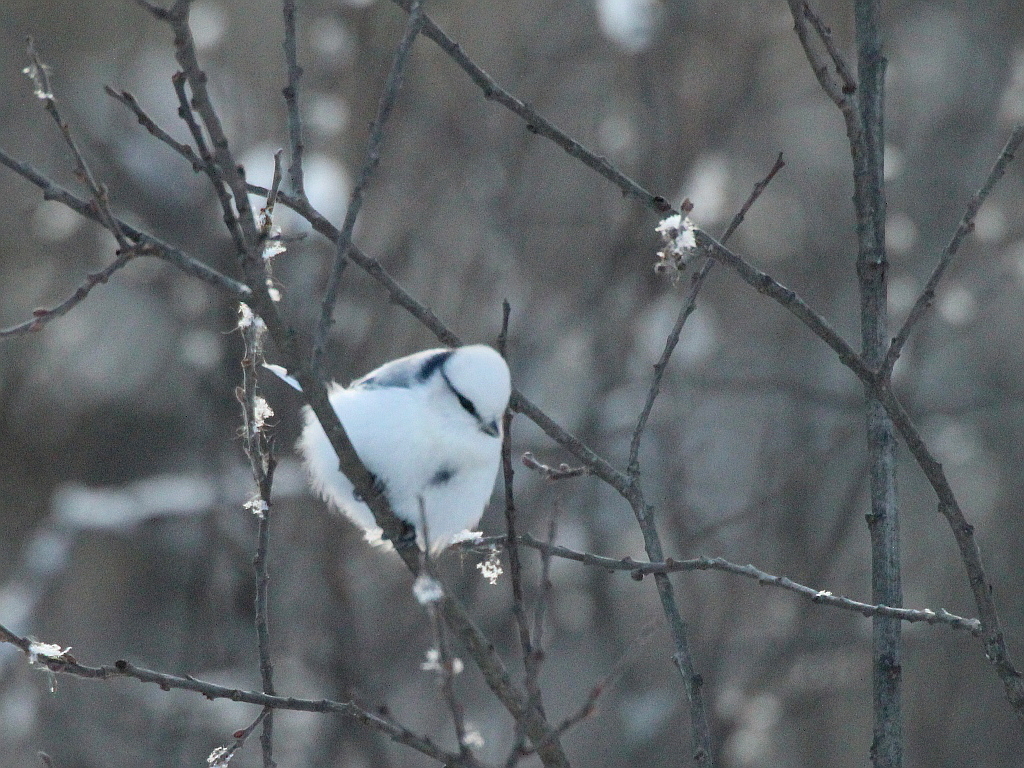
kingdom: Animalia
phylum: Chordata
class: Aves
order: Passeriformes
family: Paridae
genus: Cyanistes
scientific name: Cyanistes cyanus
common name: Azure tit
